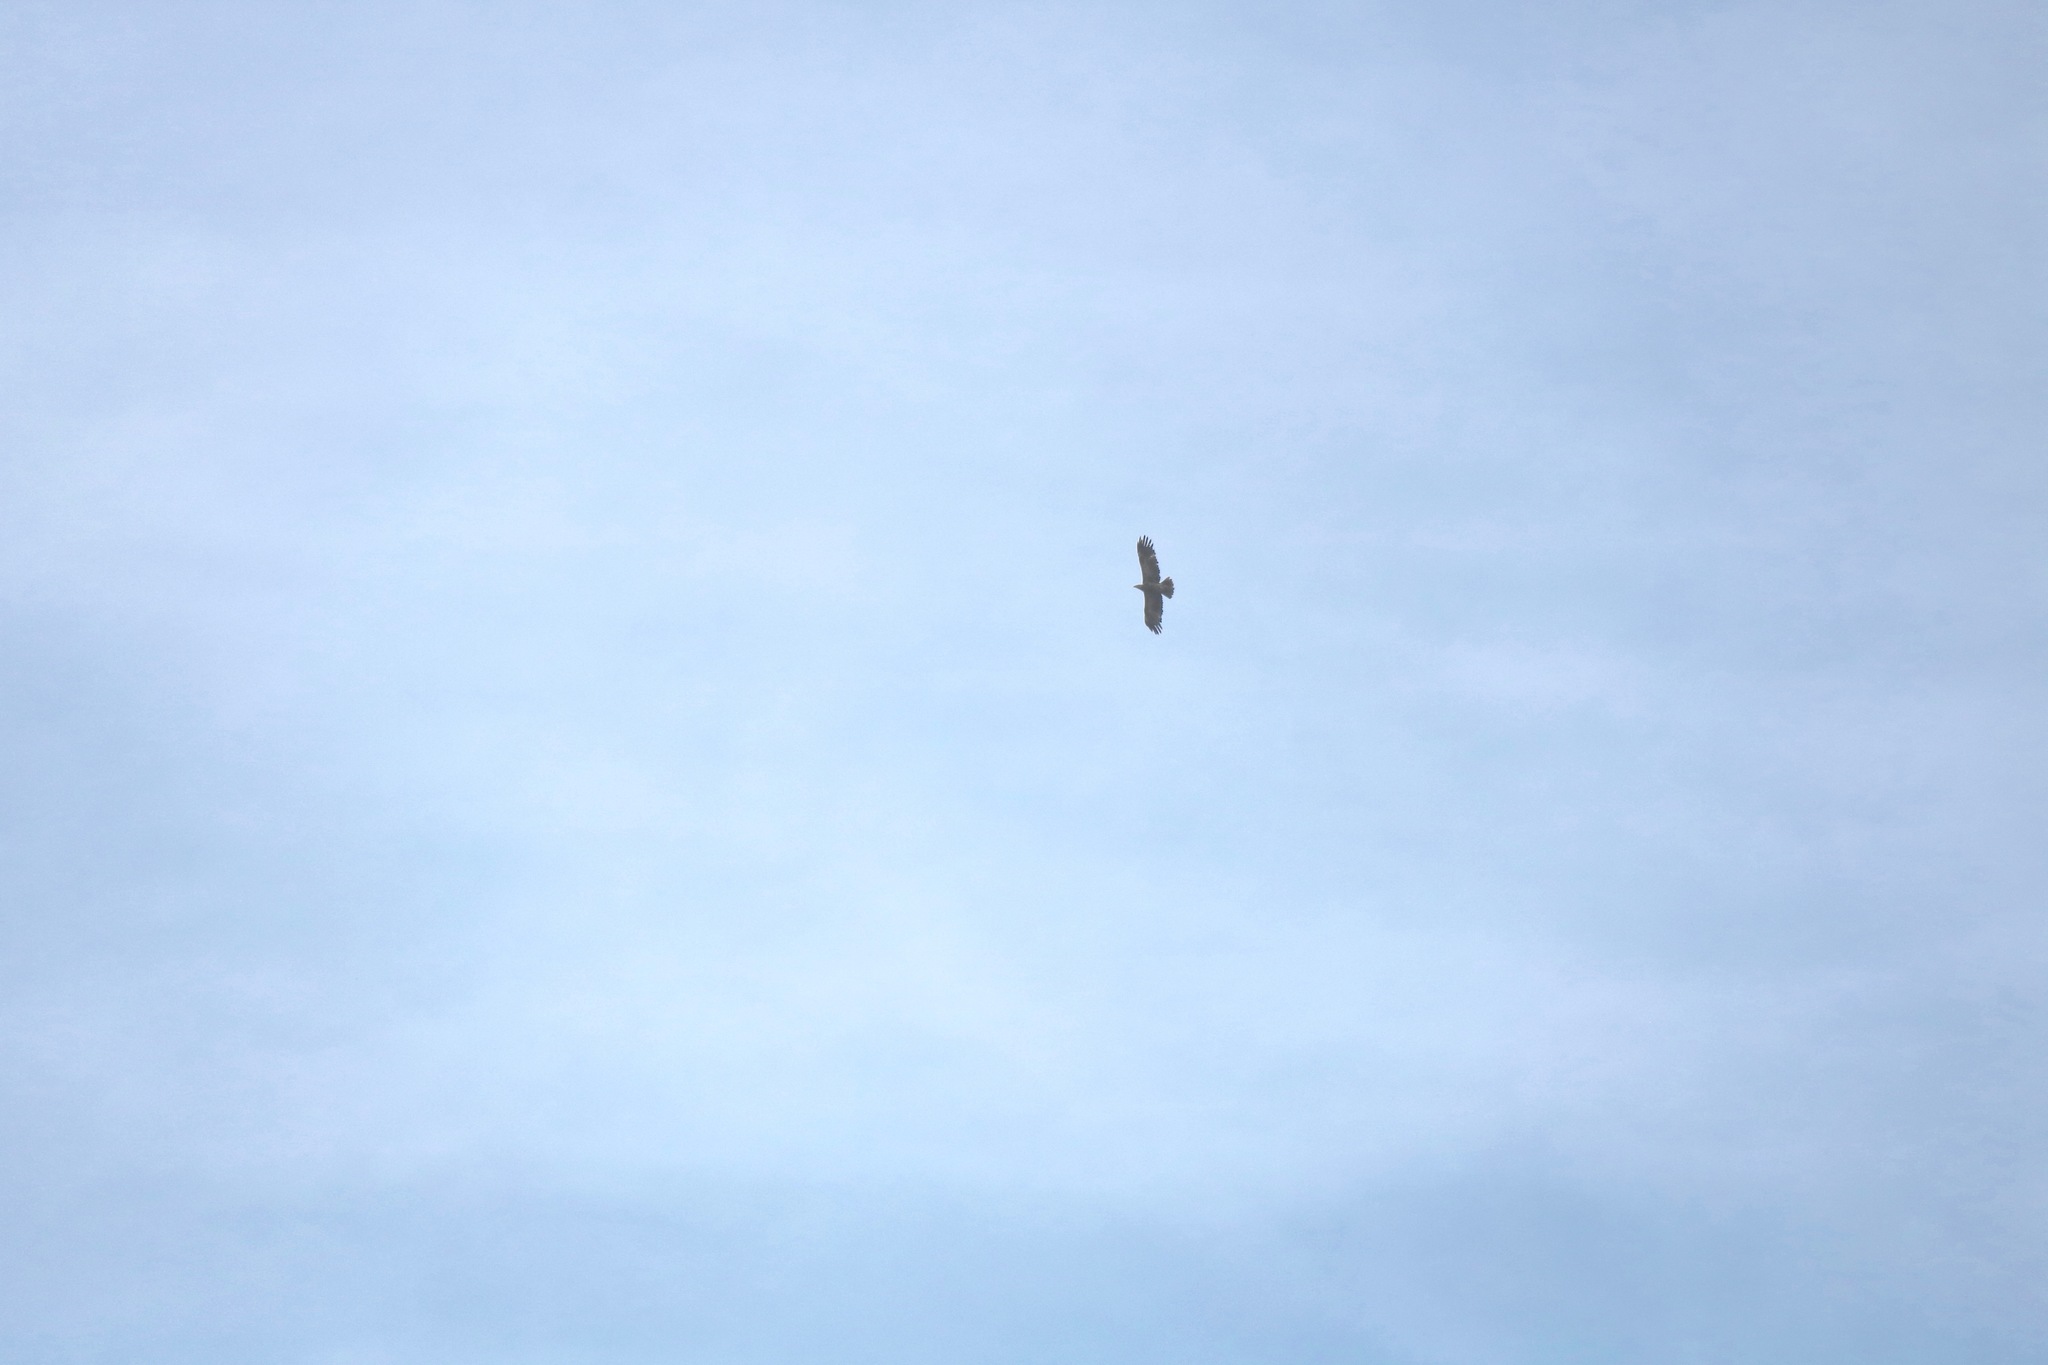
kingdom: Animalia
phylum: Chordata
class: Aves
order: Accipitriformes
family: Accipitridae
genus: Aquila
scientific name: Aquila heliaca
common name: Eastern imperial eagle
